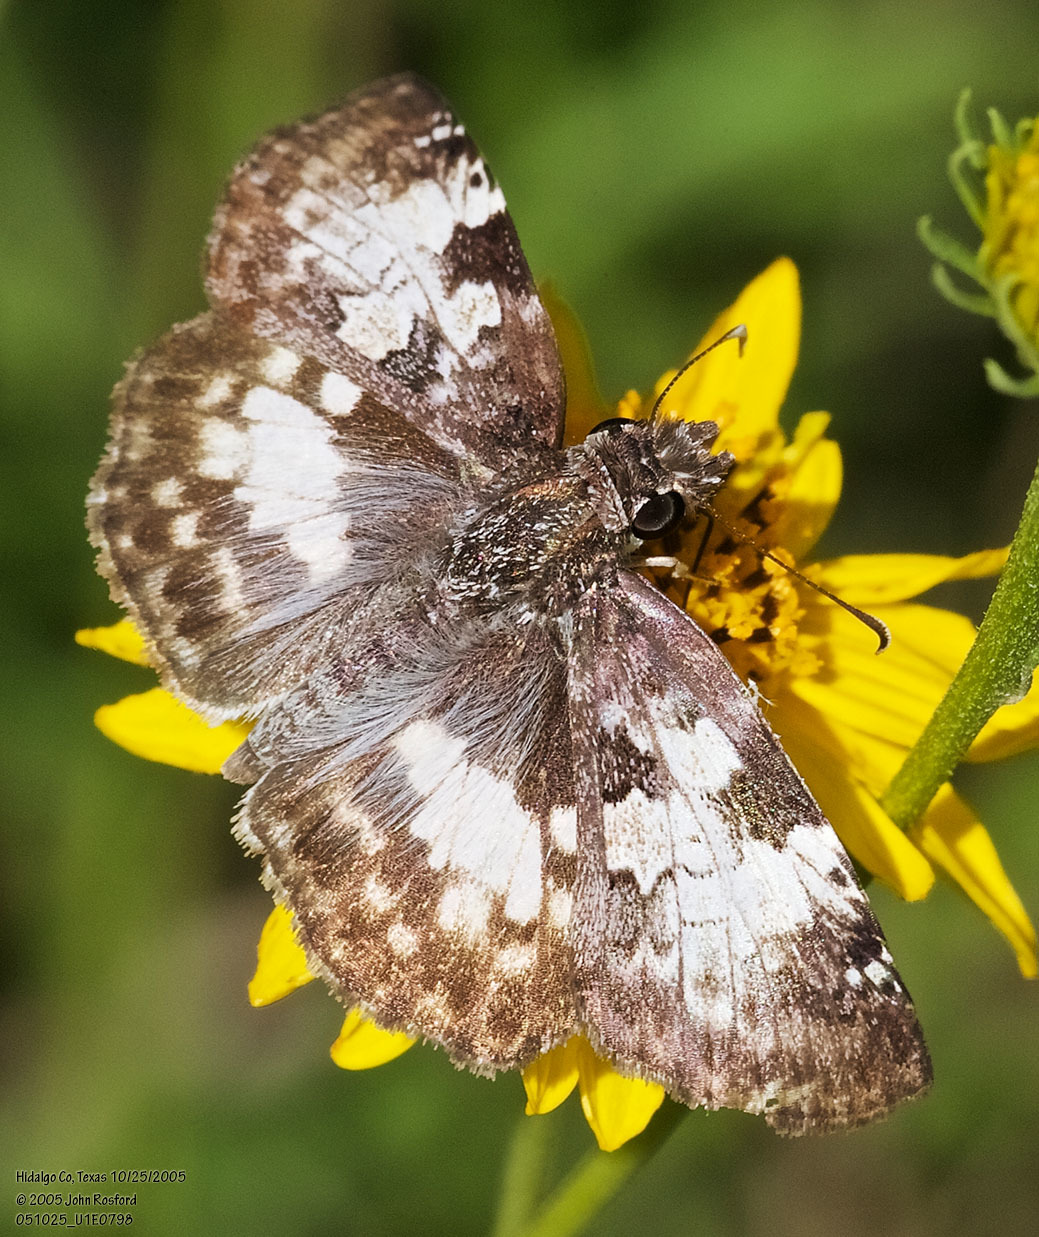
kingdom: Animalia
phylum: Arthropoda
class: Insecta
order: Lepidoptera
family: Hesperiidae
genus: Chiothion
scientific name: Chiothion georgina
